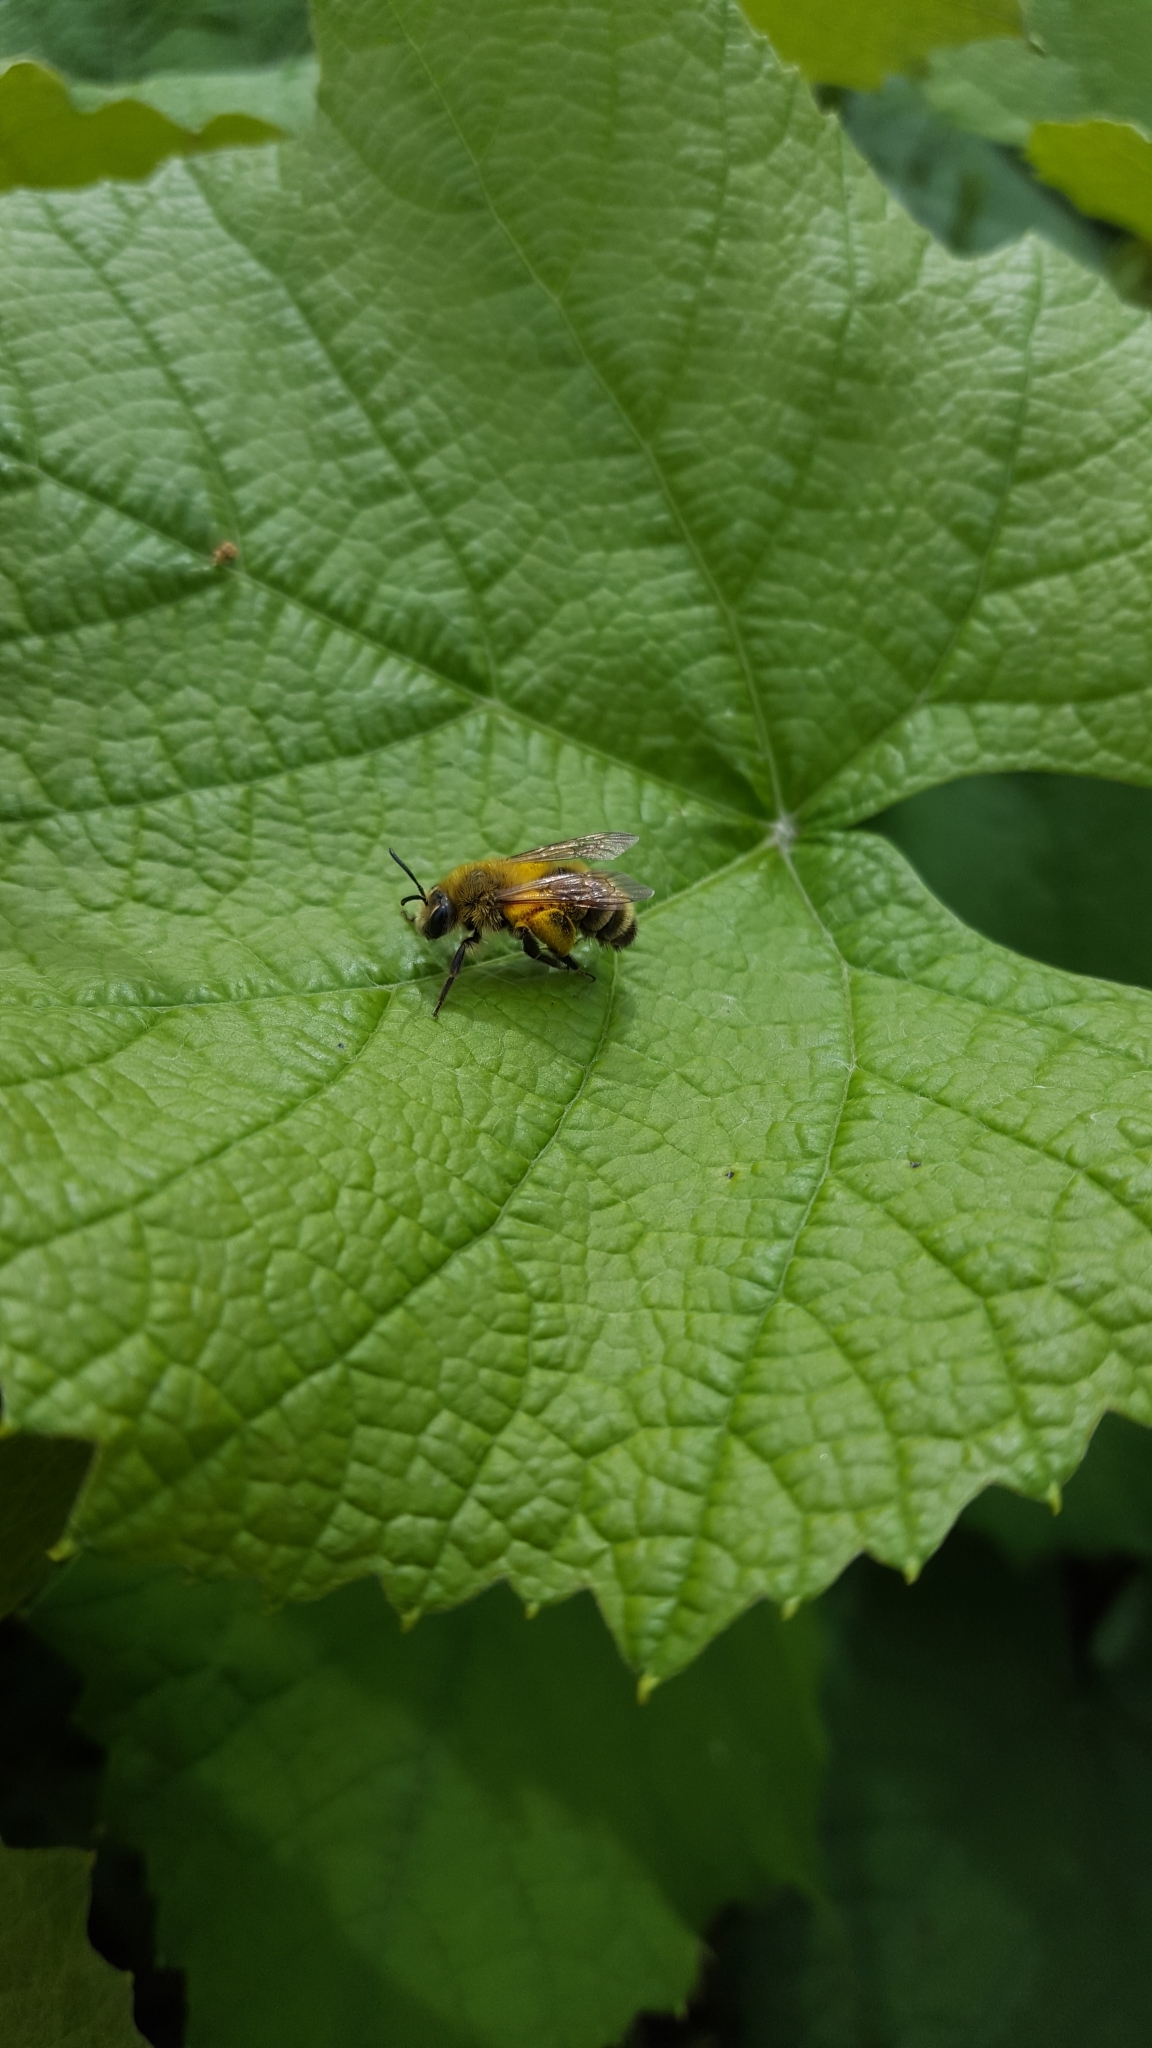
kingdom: Animalia
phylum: Arthropoda
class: Insecta
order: Hymenoptera
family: Andrenidae
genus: Andrena
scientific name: Andrena hirticincta
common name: Hairy-banded mining bee
